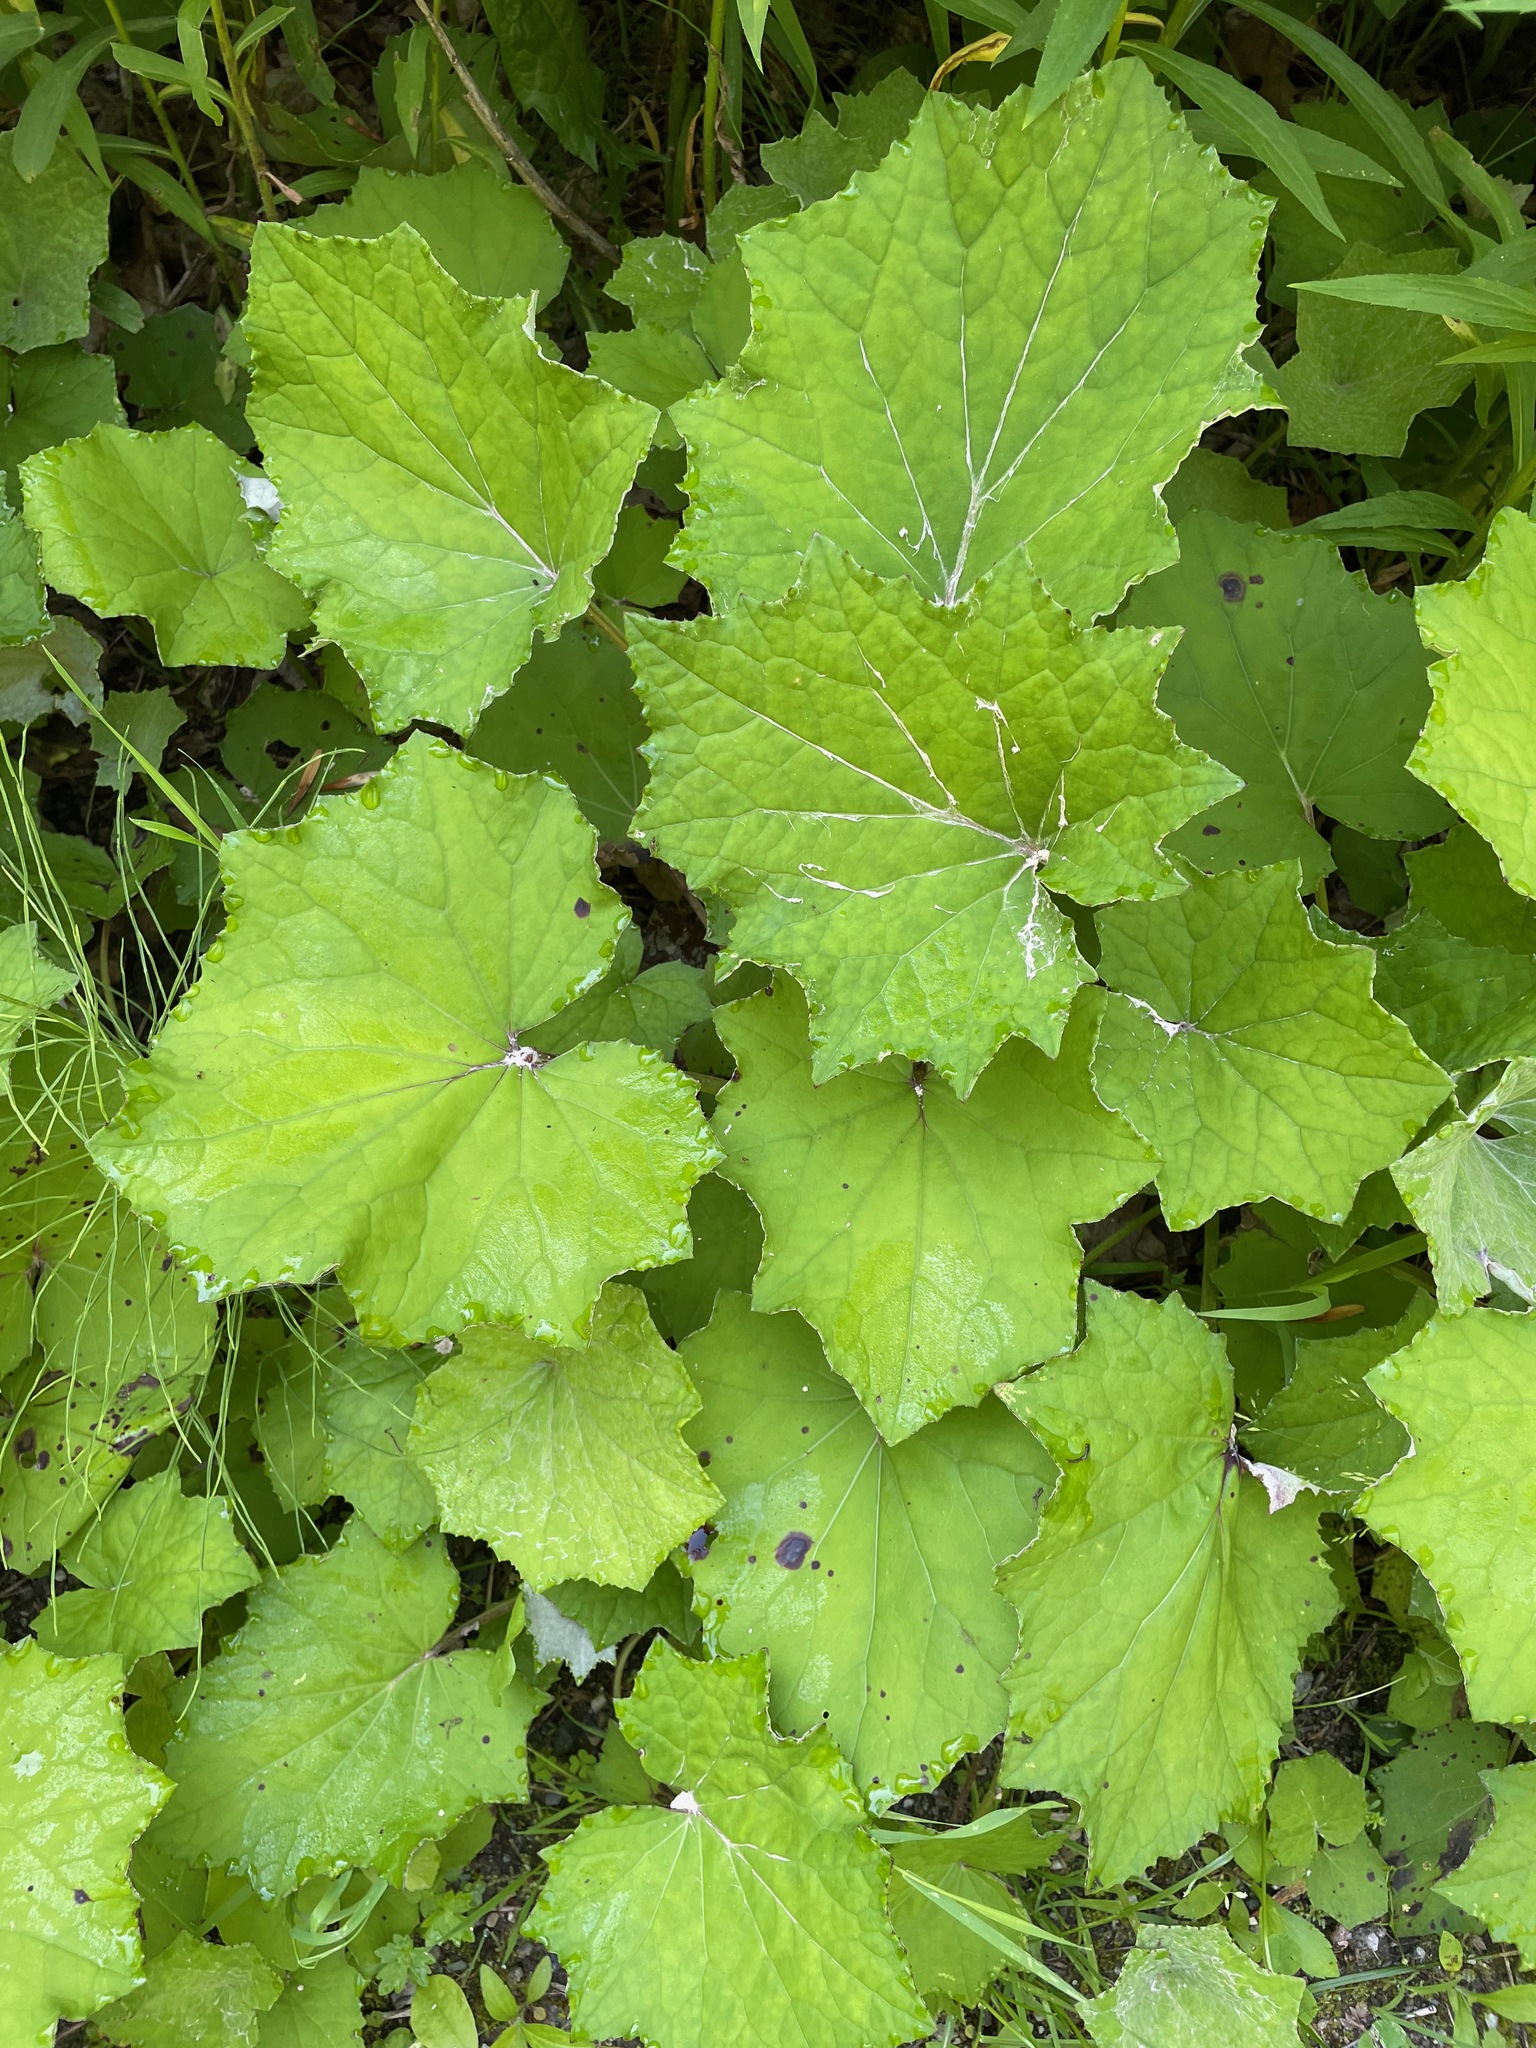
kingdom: Plantae
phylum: Tracheophyta
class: Magnoliopsida
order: Asterales
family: Asteraceae
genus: Tussilago
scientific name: Tussilago farfara
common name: Coltsfoot
